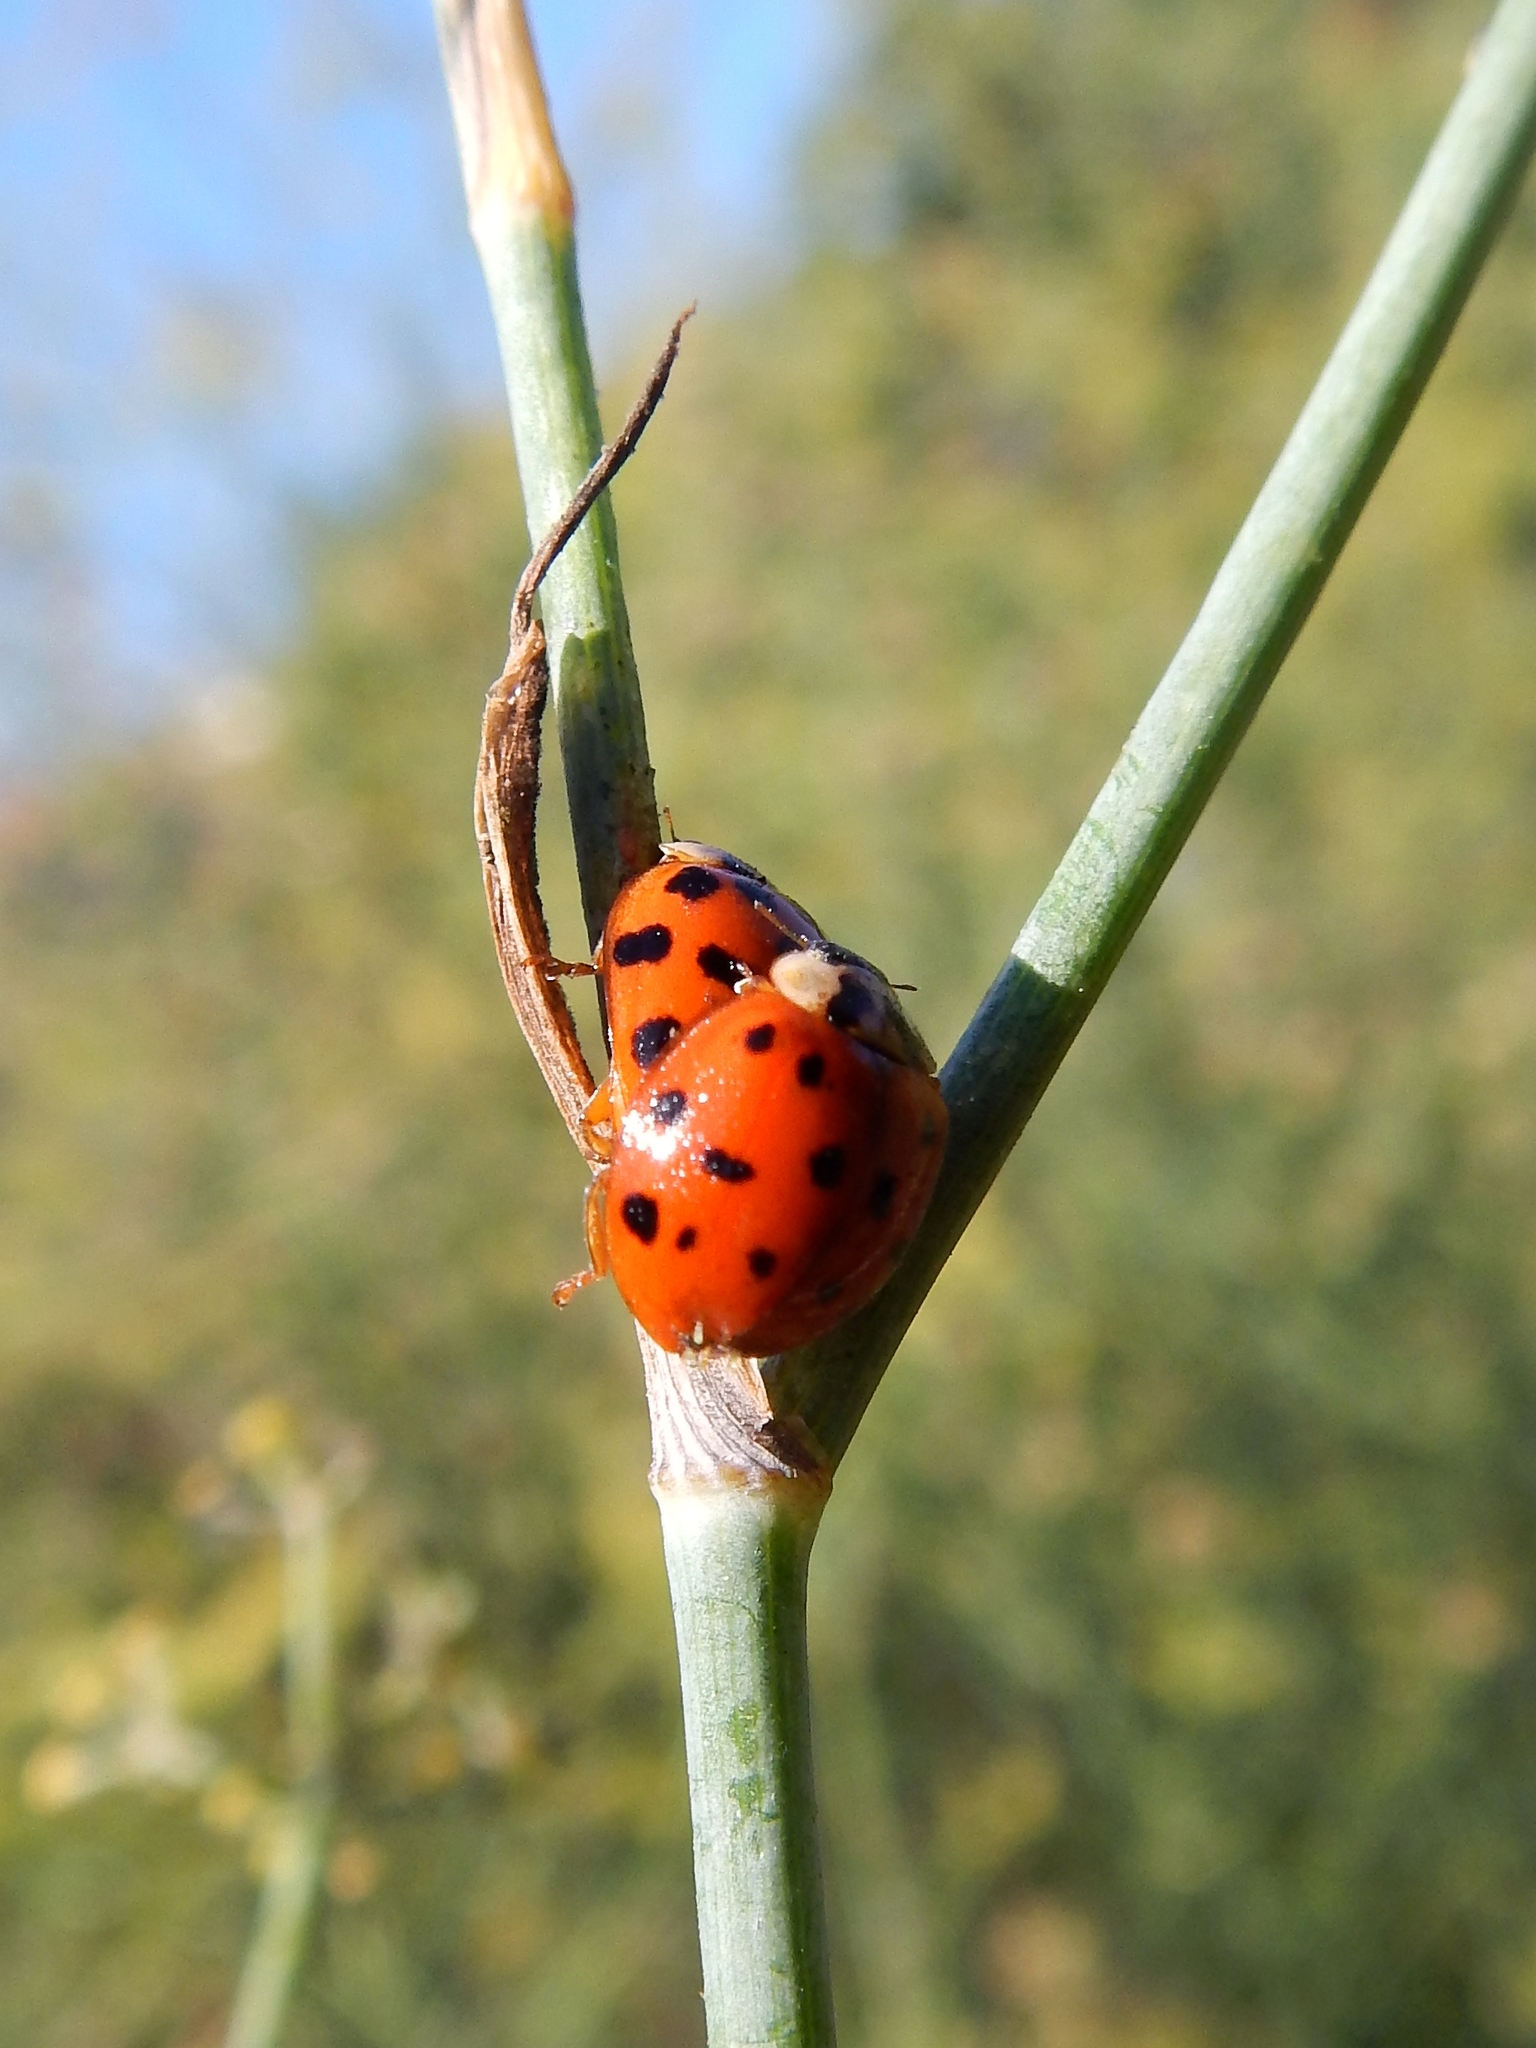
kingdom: Animalia
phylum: Arthropoda
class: Insecta
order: Coleoptera
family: Coccinellidae
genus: Harmonia
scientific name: Harmonia axyridis
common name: Harlequin ladybird
